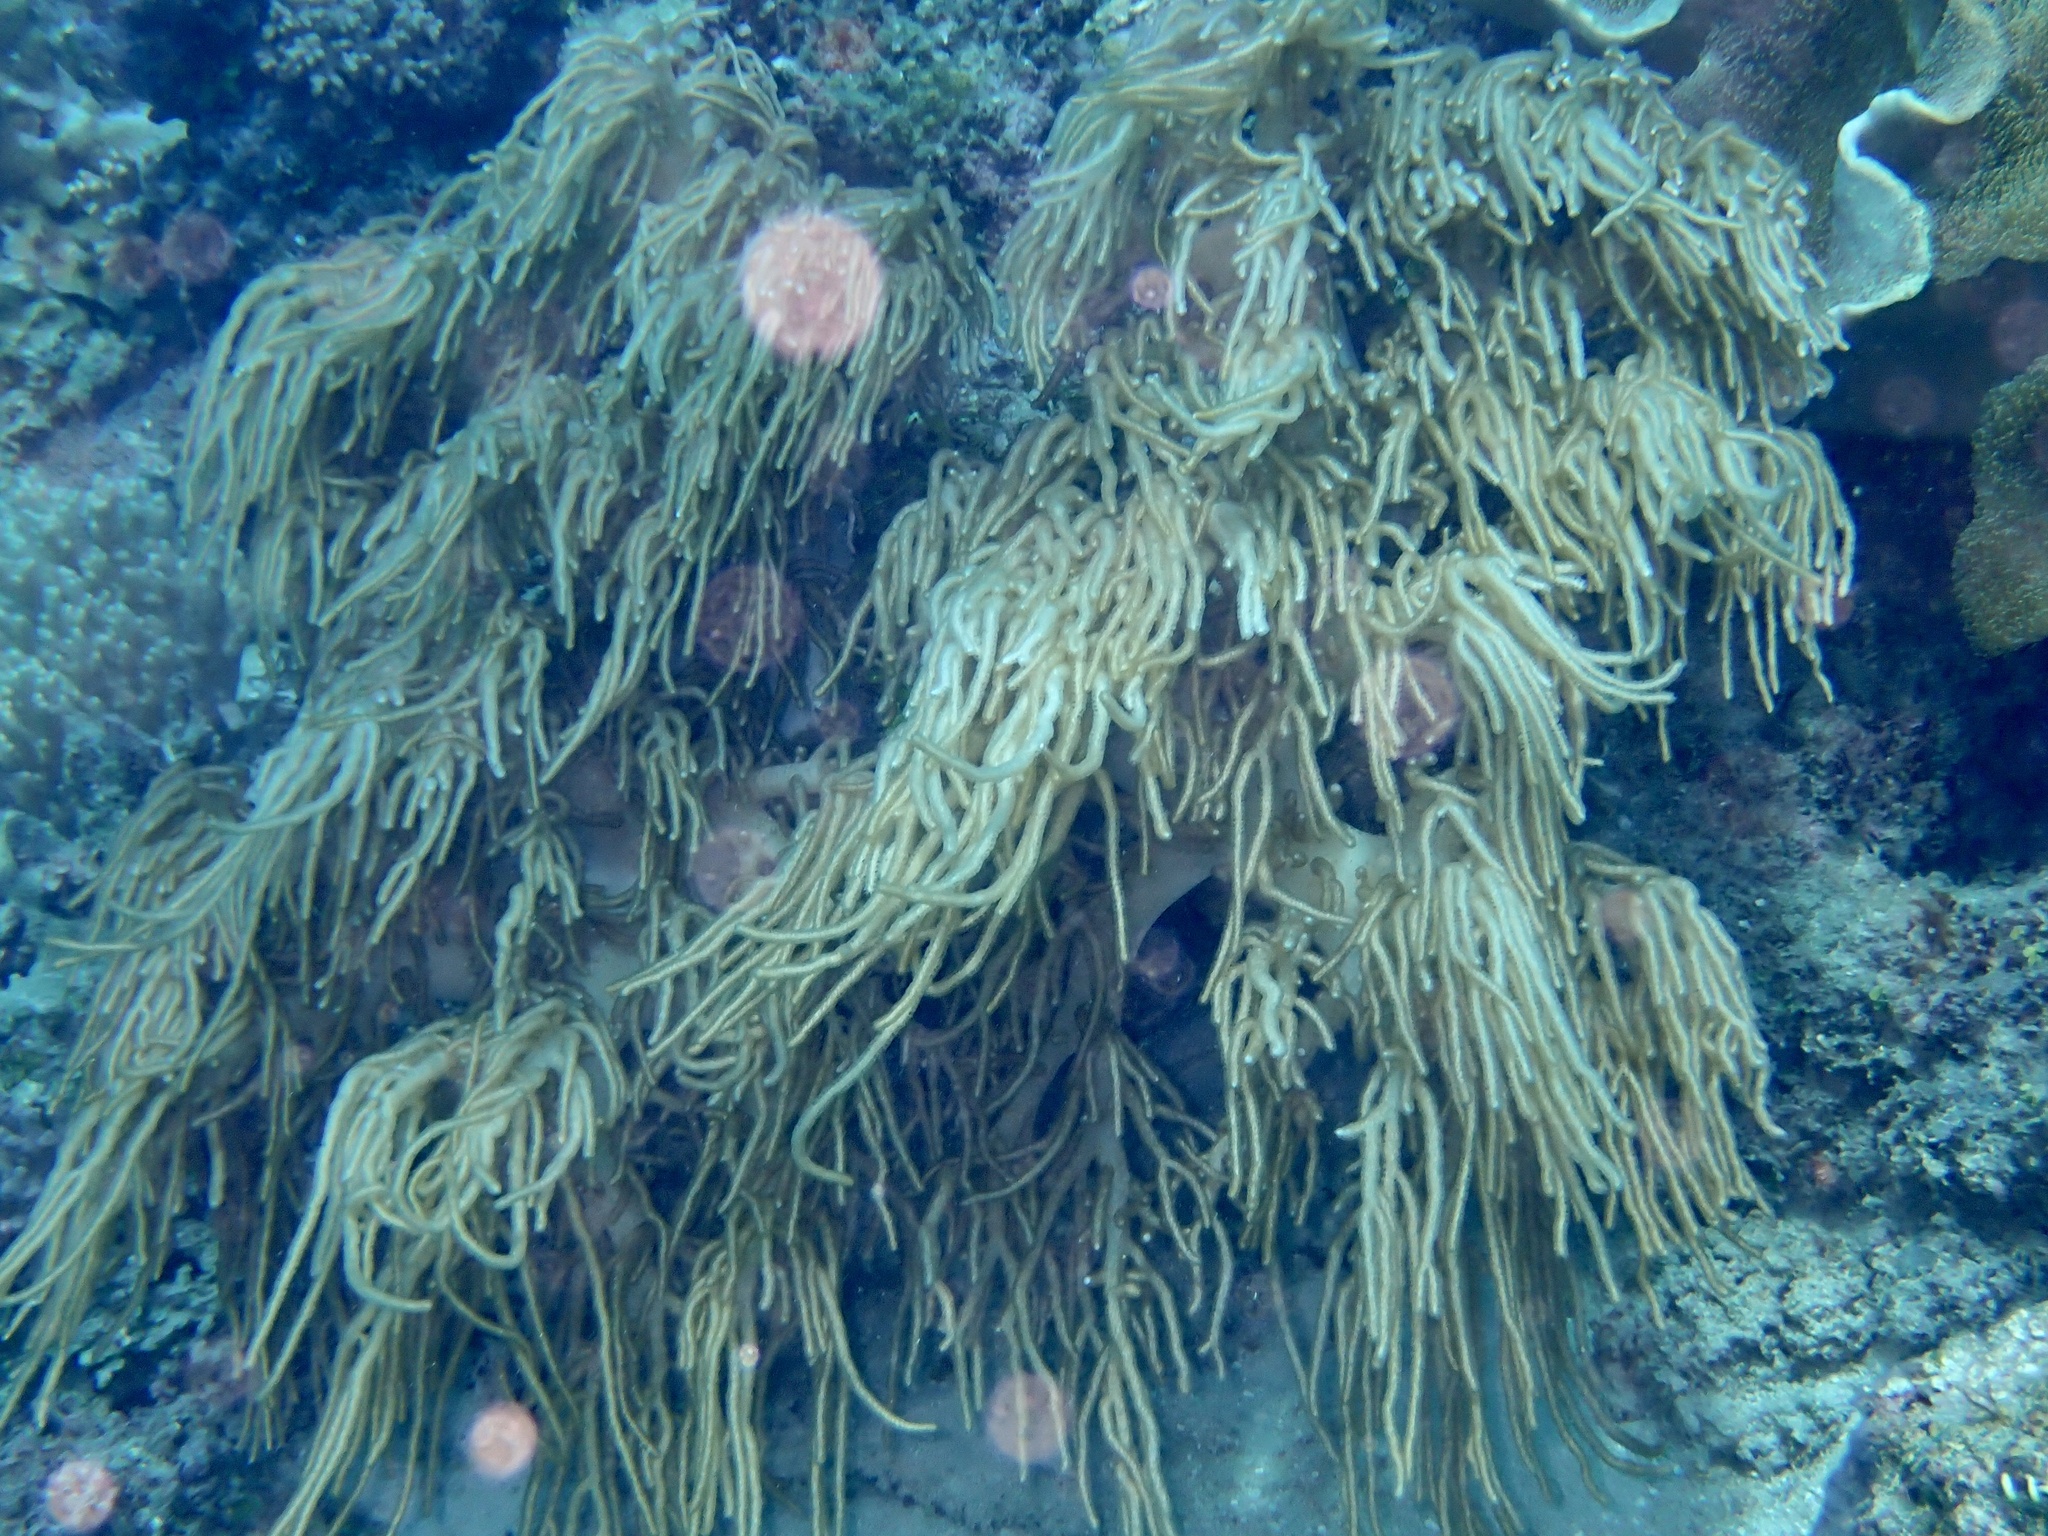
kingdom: Animalia
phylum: Cnidaria
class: Anthozoa
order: Malacalcyonacea
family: Sarcophytidae
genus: Sclerophytum
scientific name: Sclerophytum flexibile
